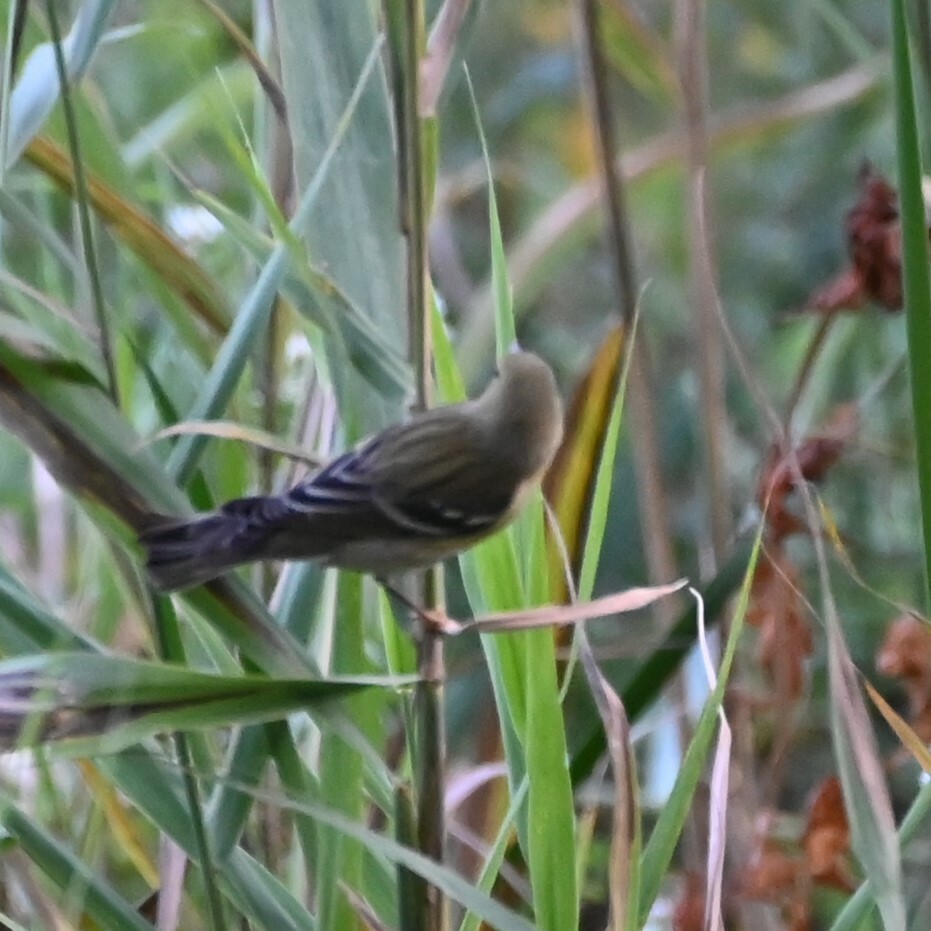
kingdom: Animalia
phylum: Chordata
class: Aves
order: Passeriformes
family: Parulidae
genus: Setophaga
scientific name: Setophaga striata
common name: Blackpoll warbler
